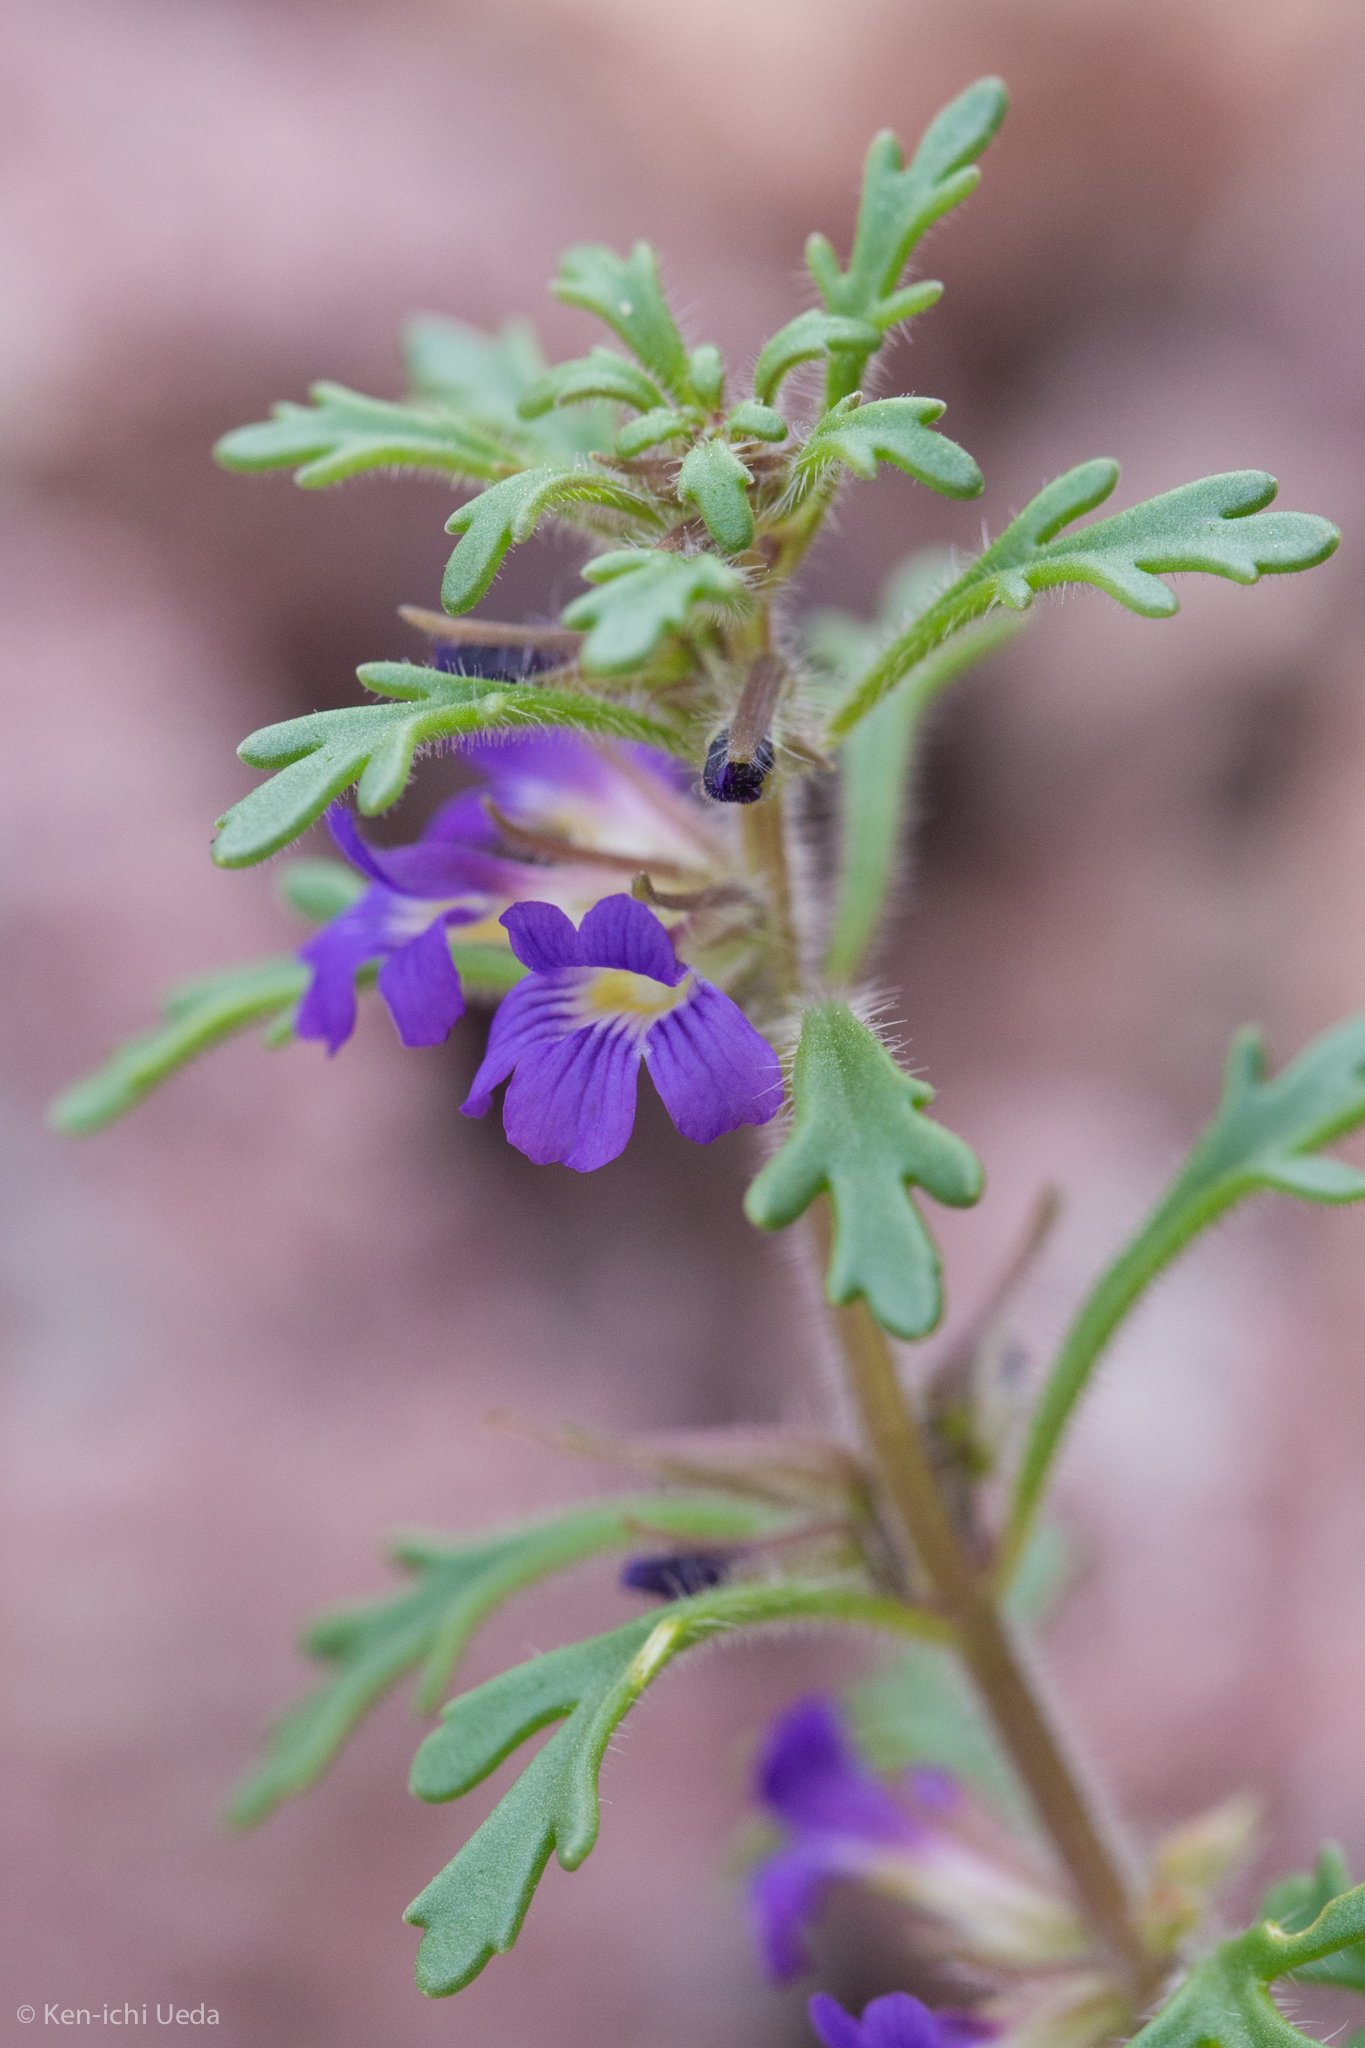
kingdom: Plantae
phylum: Tracheophyta
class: Magnoliopsida
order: Lamiales
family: Plantaginaceae
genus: Schistophragma
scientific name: Schistophragma intermedium
